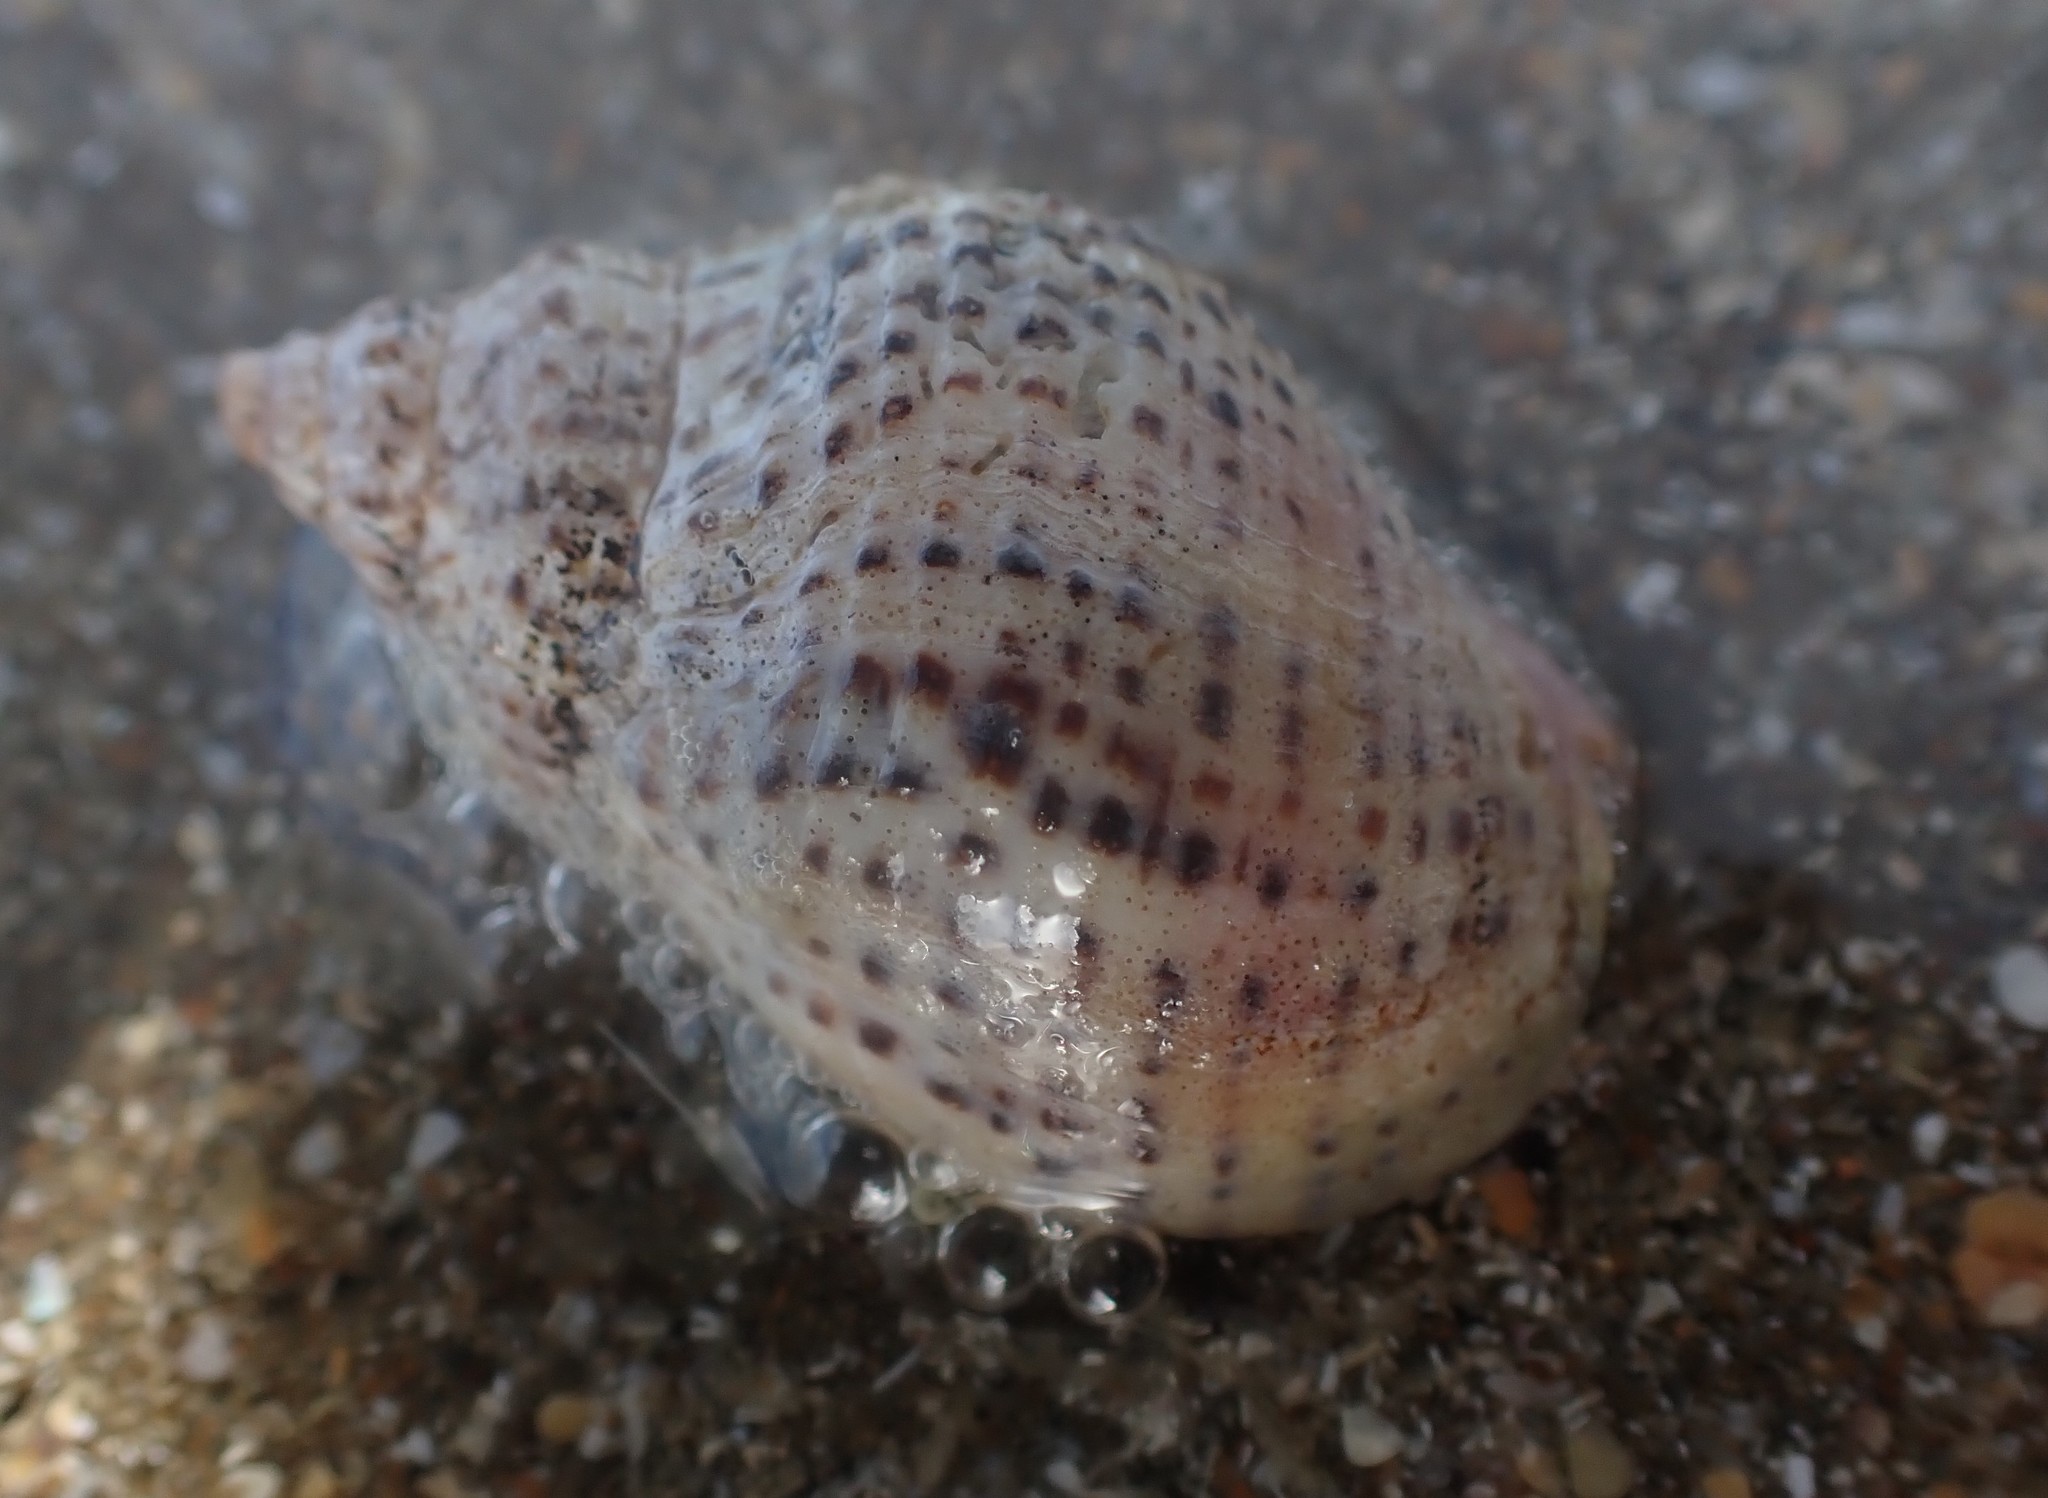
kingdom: Animalia
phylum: Arthropoda
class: Malacostraca
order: Decapoda
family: Paguridae
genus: Pagurus
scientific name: Pagurus novizealandiae
